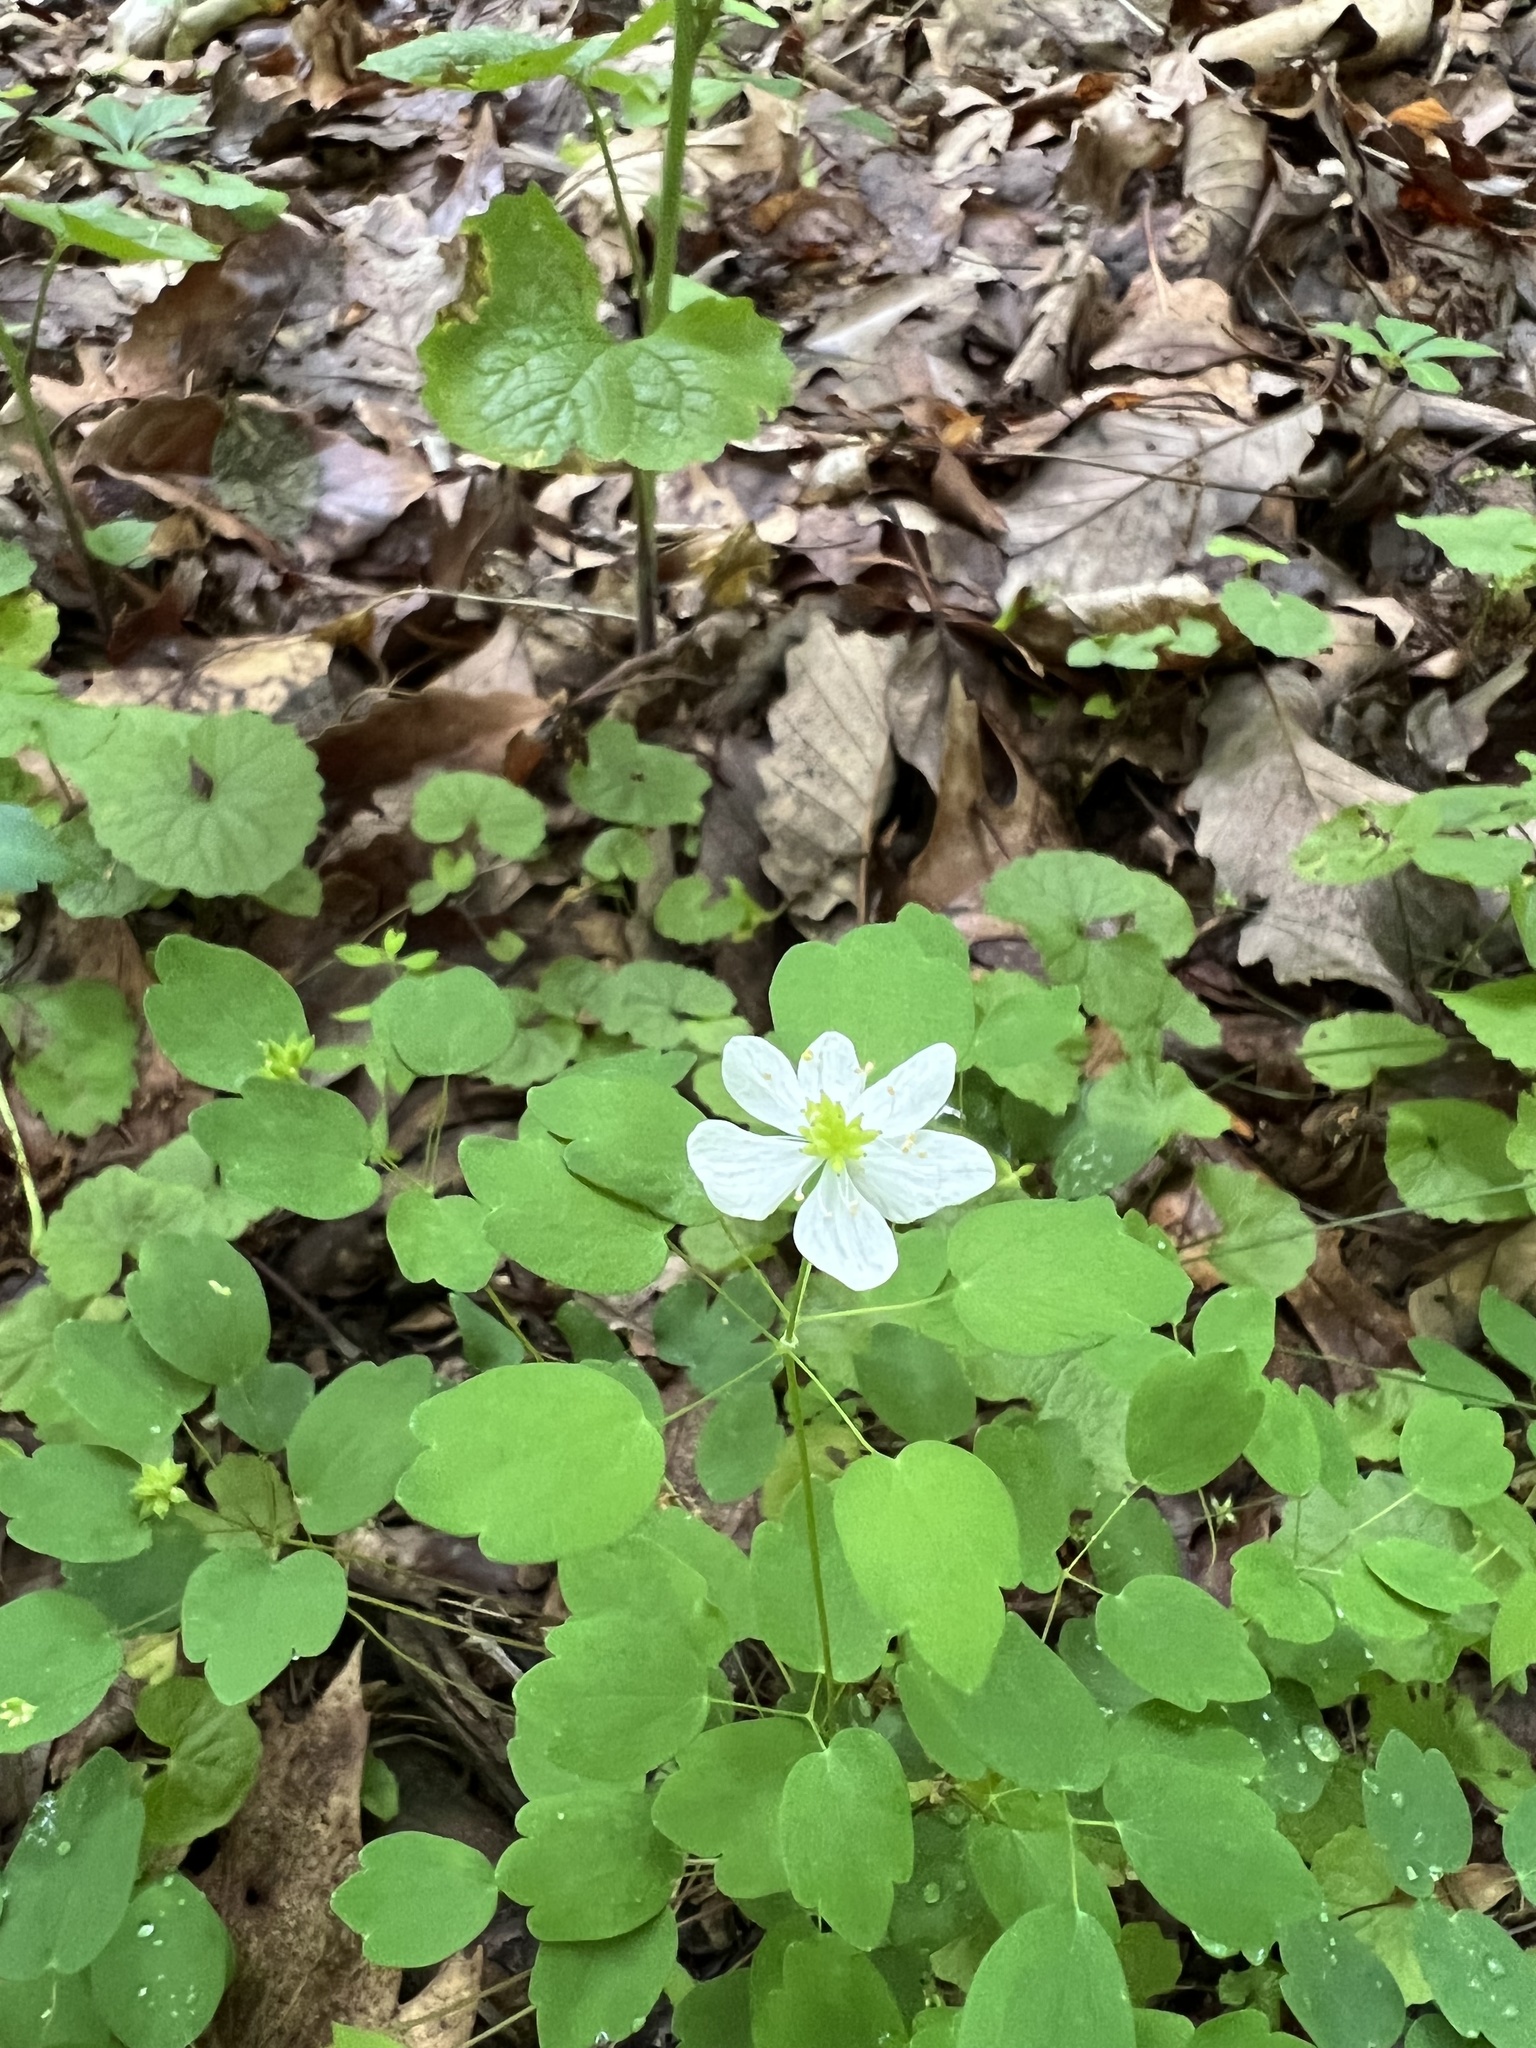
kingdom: Plantae
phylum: Tracheophyta
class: Magnoliopsida
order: Ranunculales
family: Ranunculaceae
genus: Thalictrum
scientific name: Thalictrum thalictroides
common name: Rue-anemone
